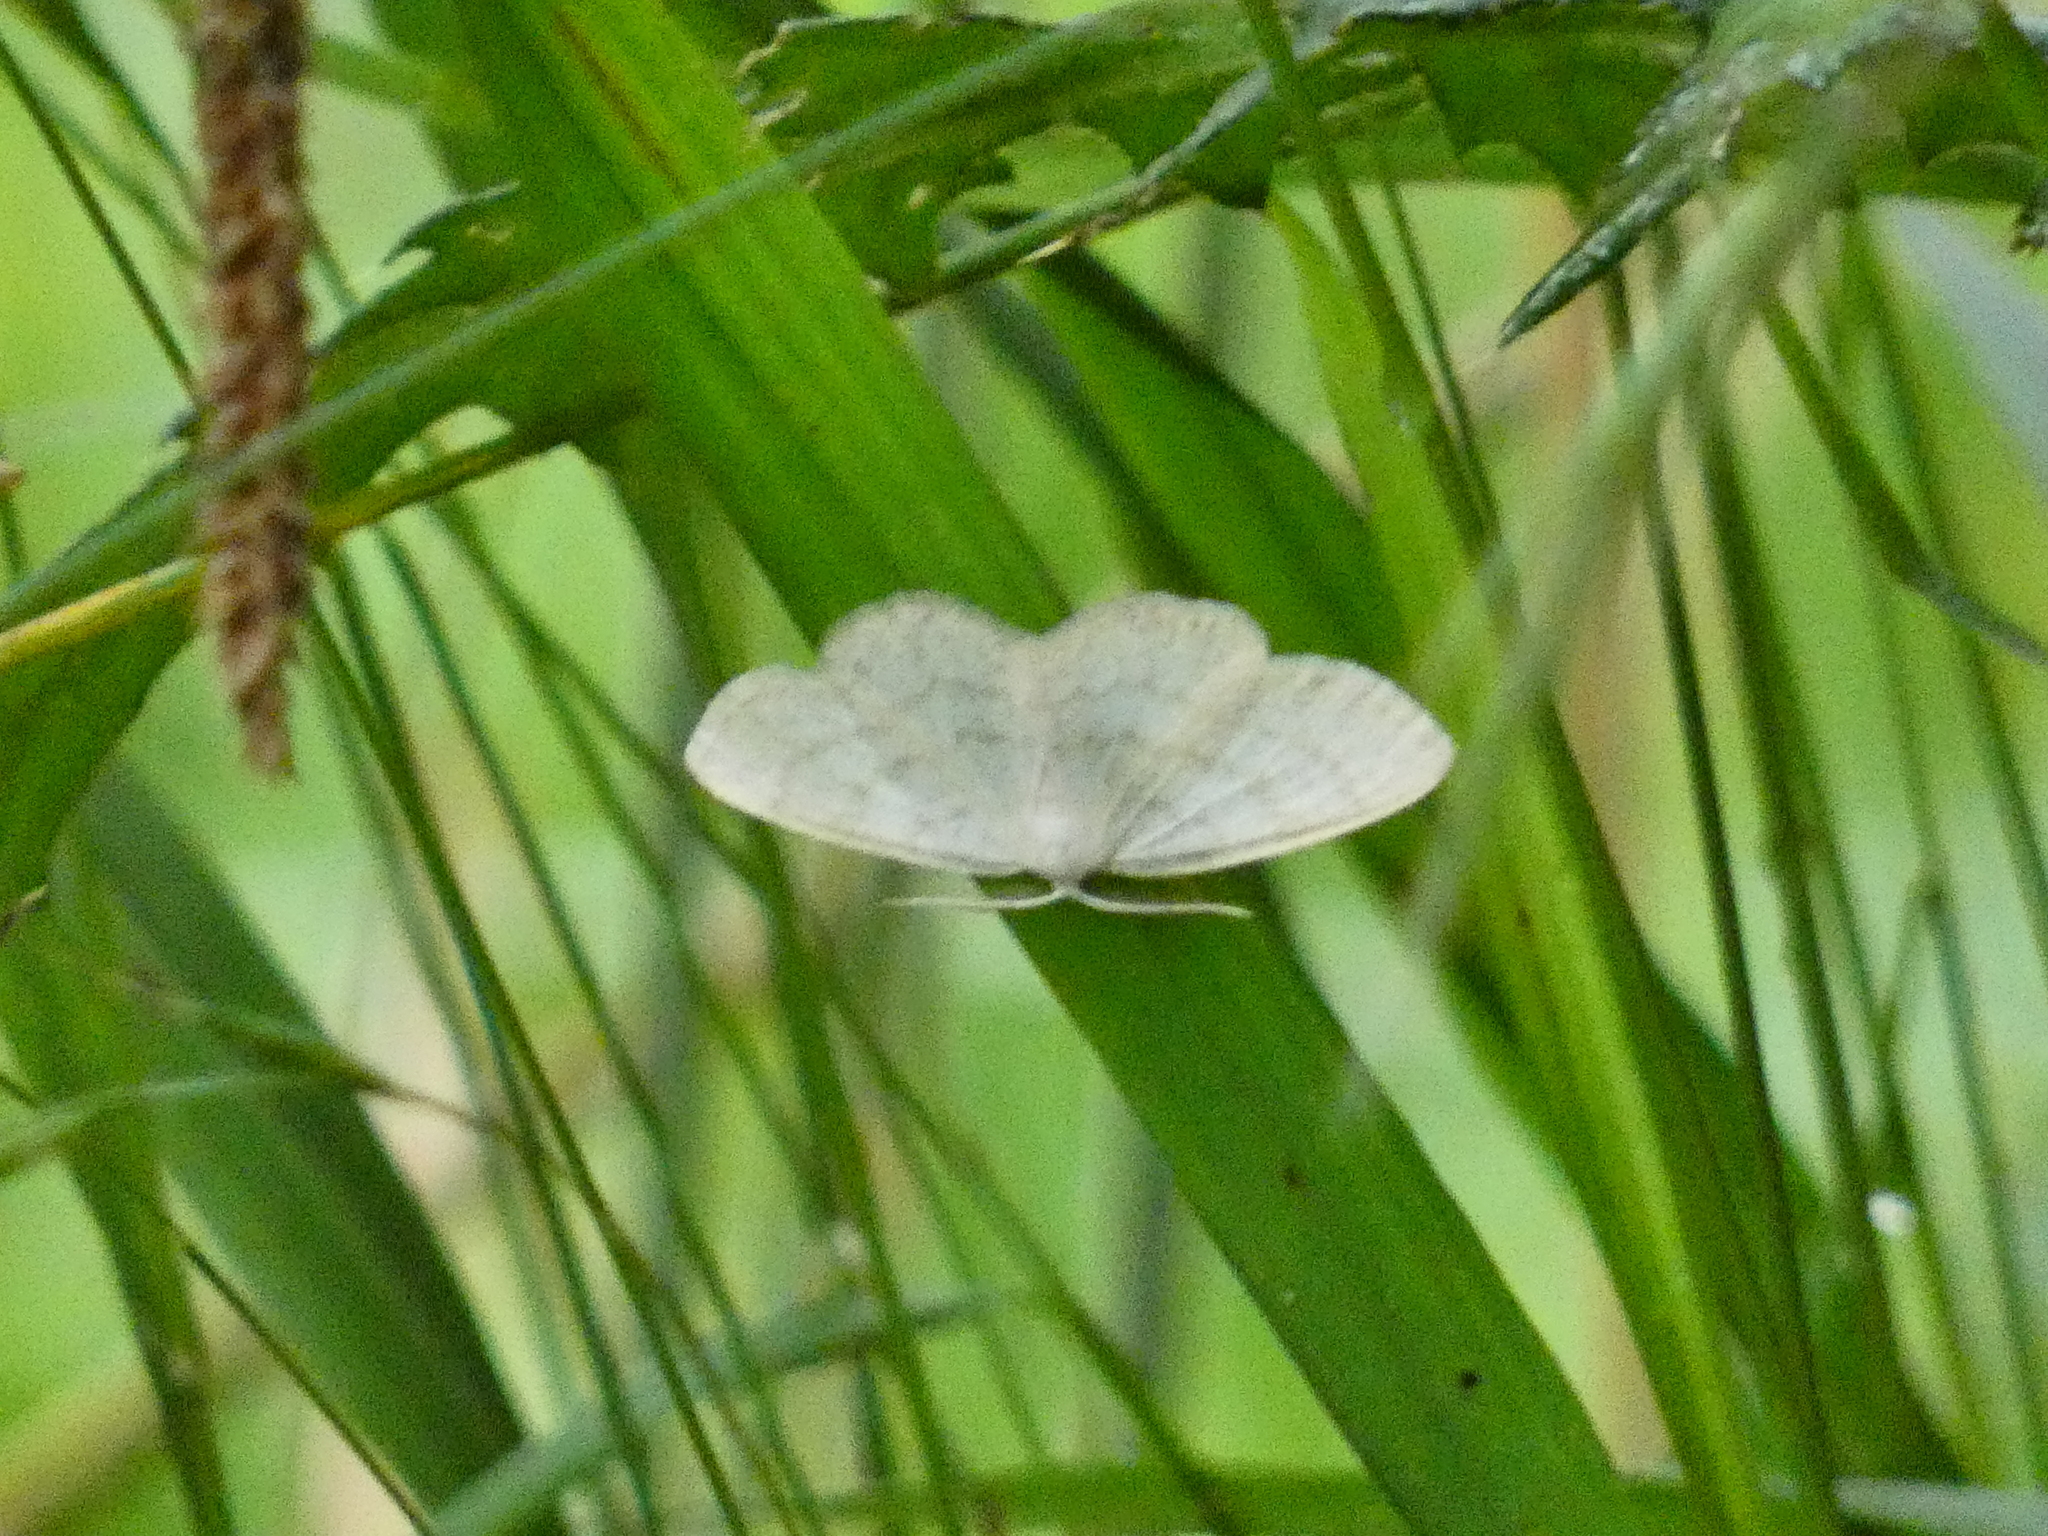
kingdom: Animalia
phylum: Arthropoda
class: Insecta
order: Lepidoptera
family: Geometridae
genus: Cabera
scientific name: Cabera exanthemata
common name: Common wave
